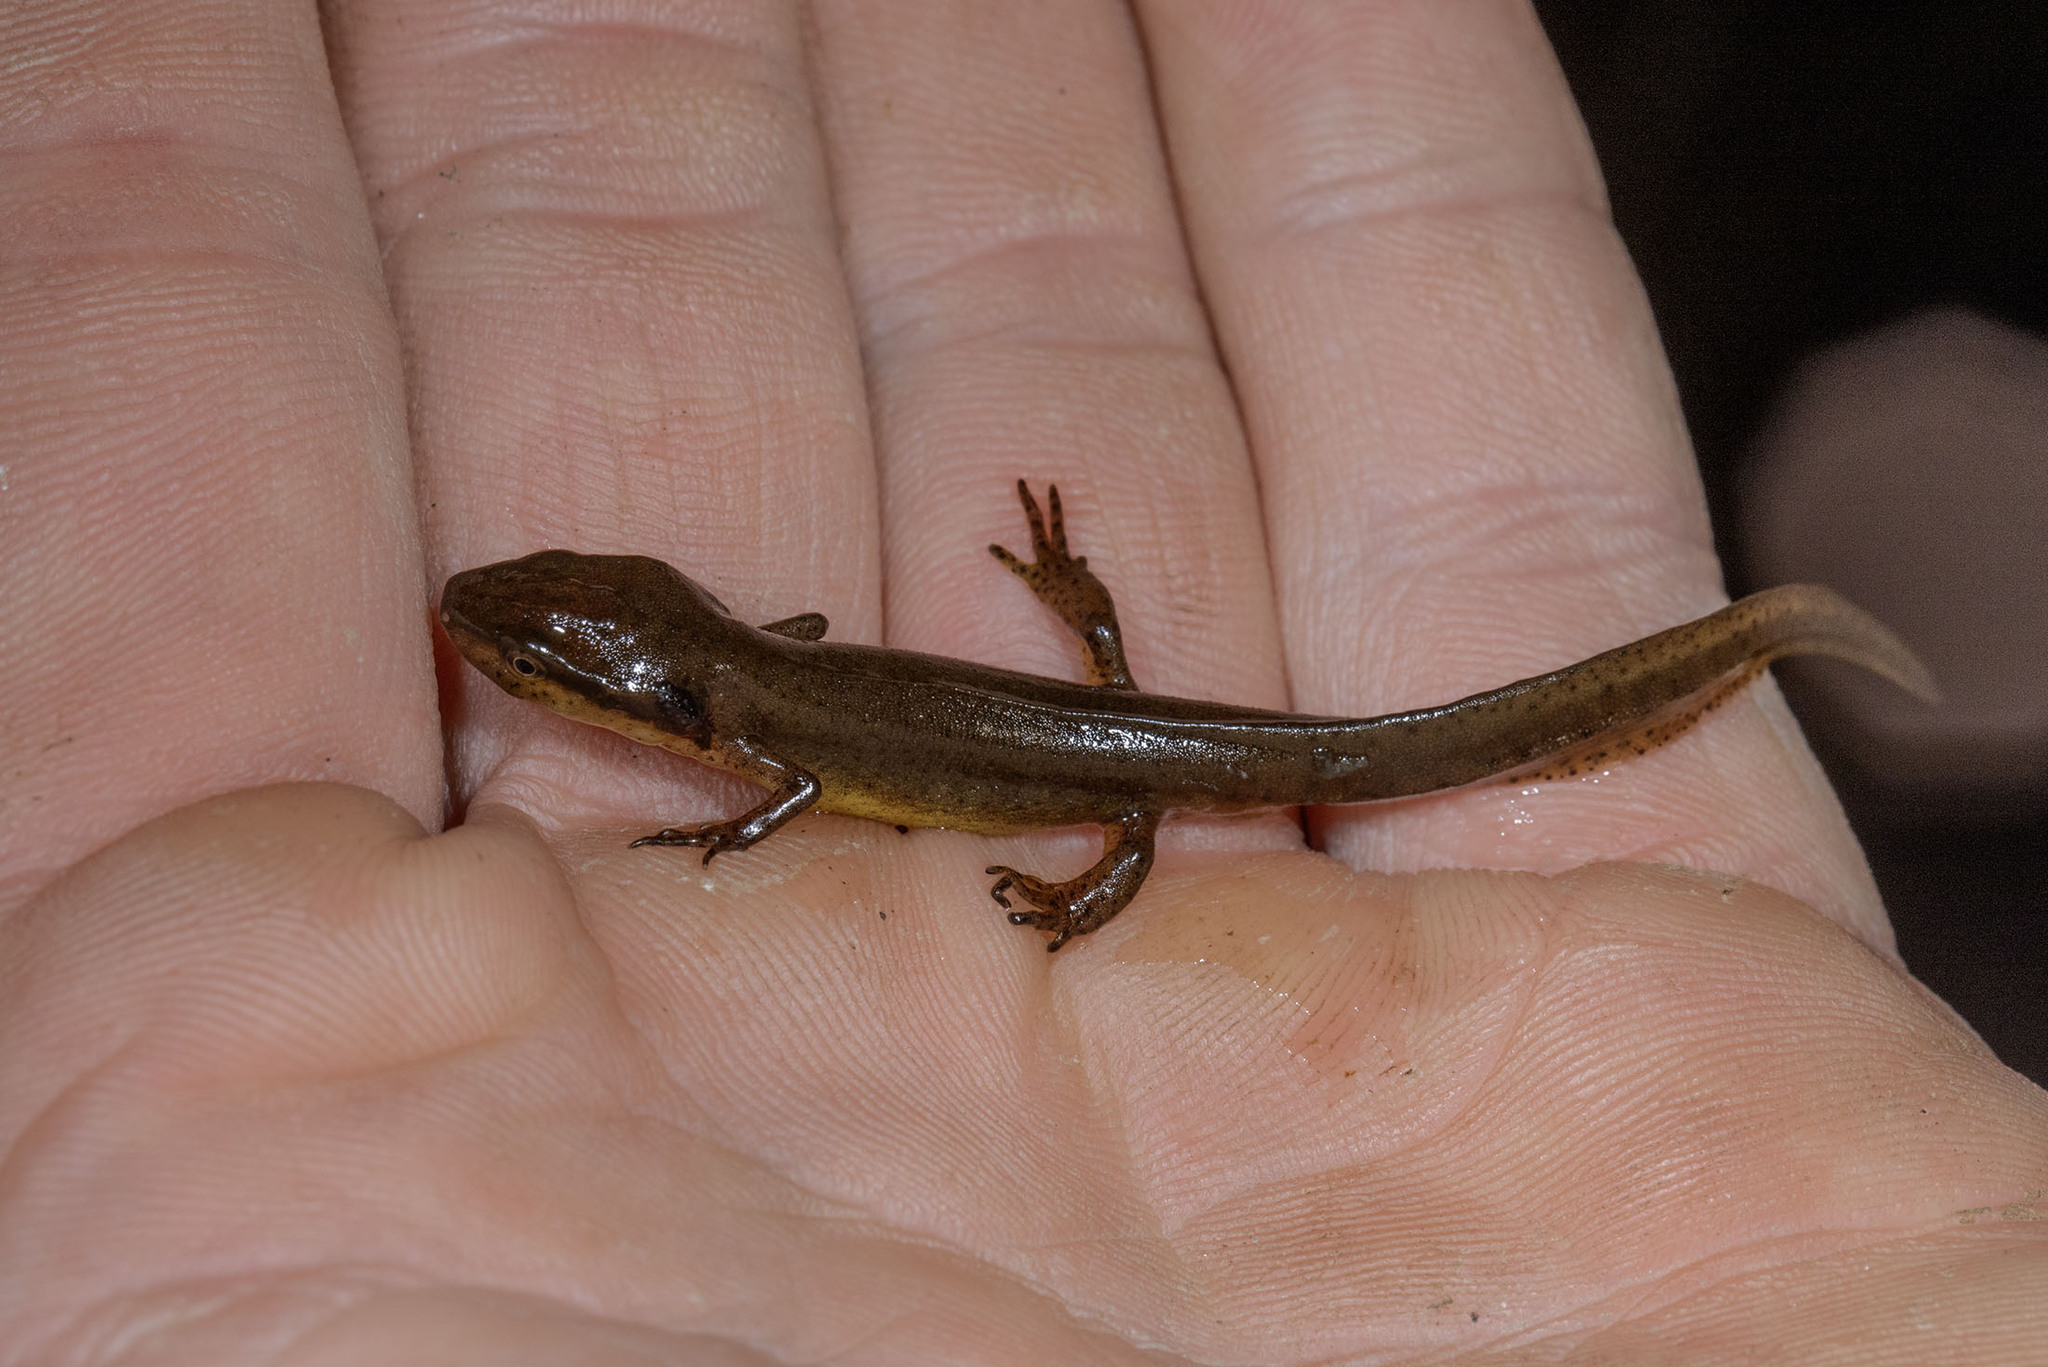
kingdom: Animalia
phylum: Chordata
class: Amphibia
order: Caudata
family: Salamandridae
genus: Notophthalmus
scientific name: Notophthalmus viridescens
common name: Eastern newt
